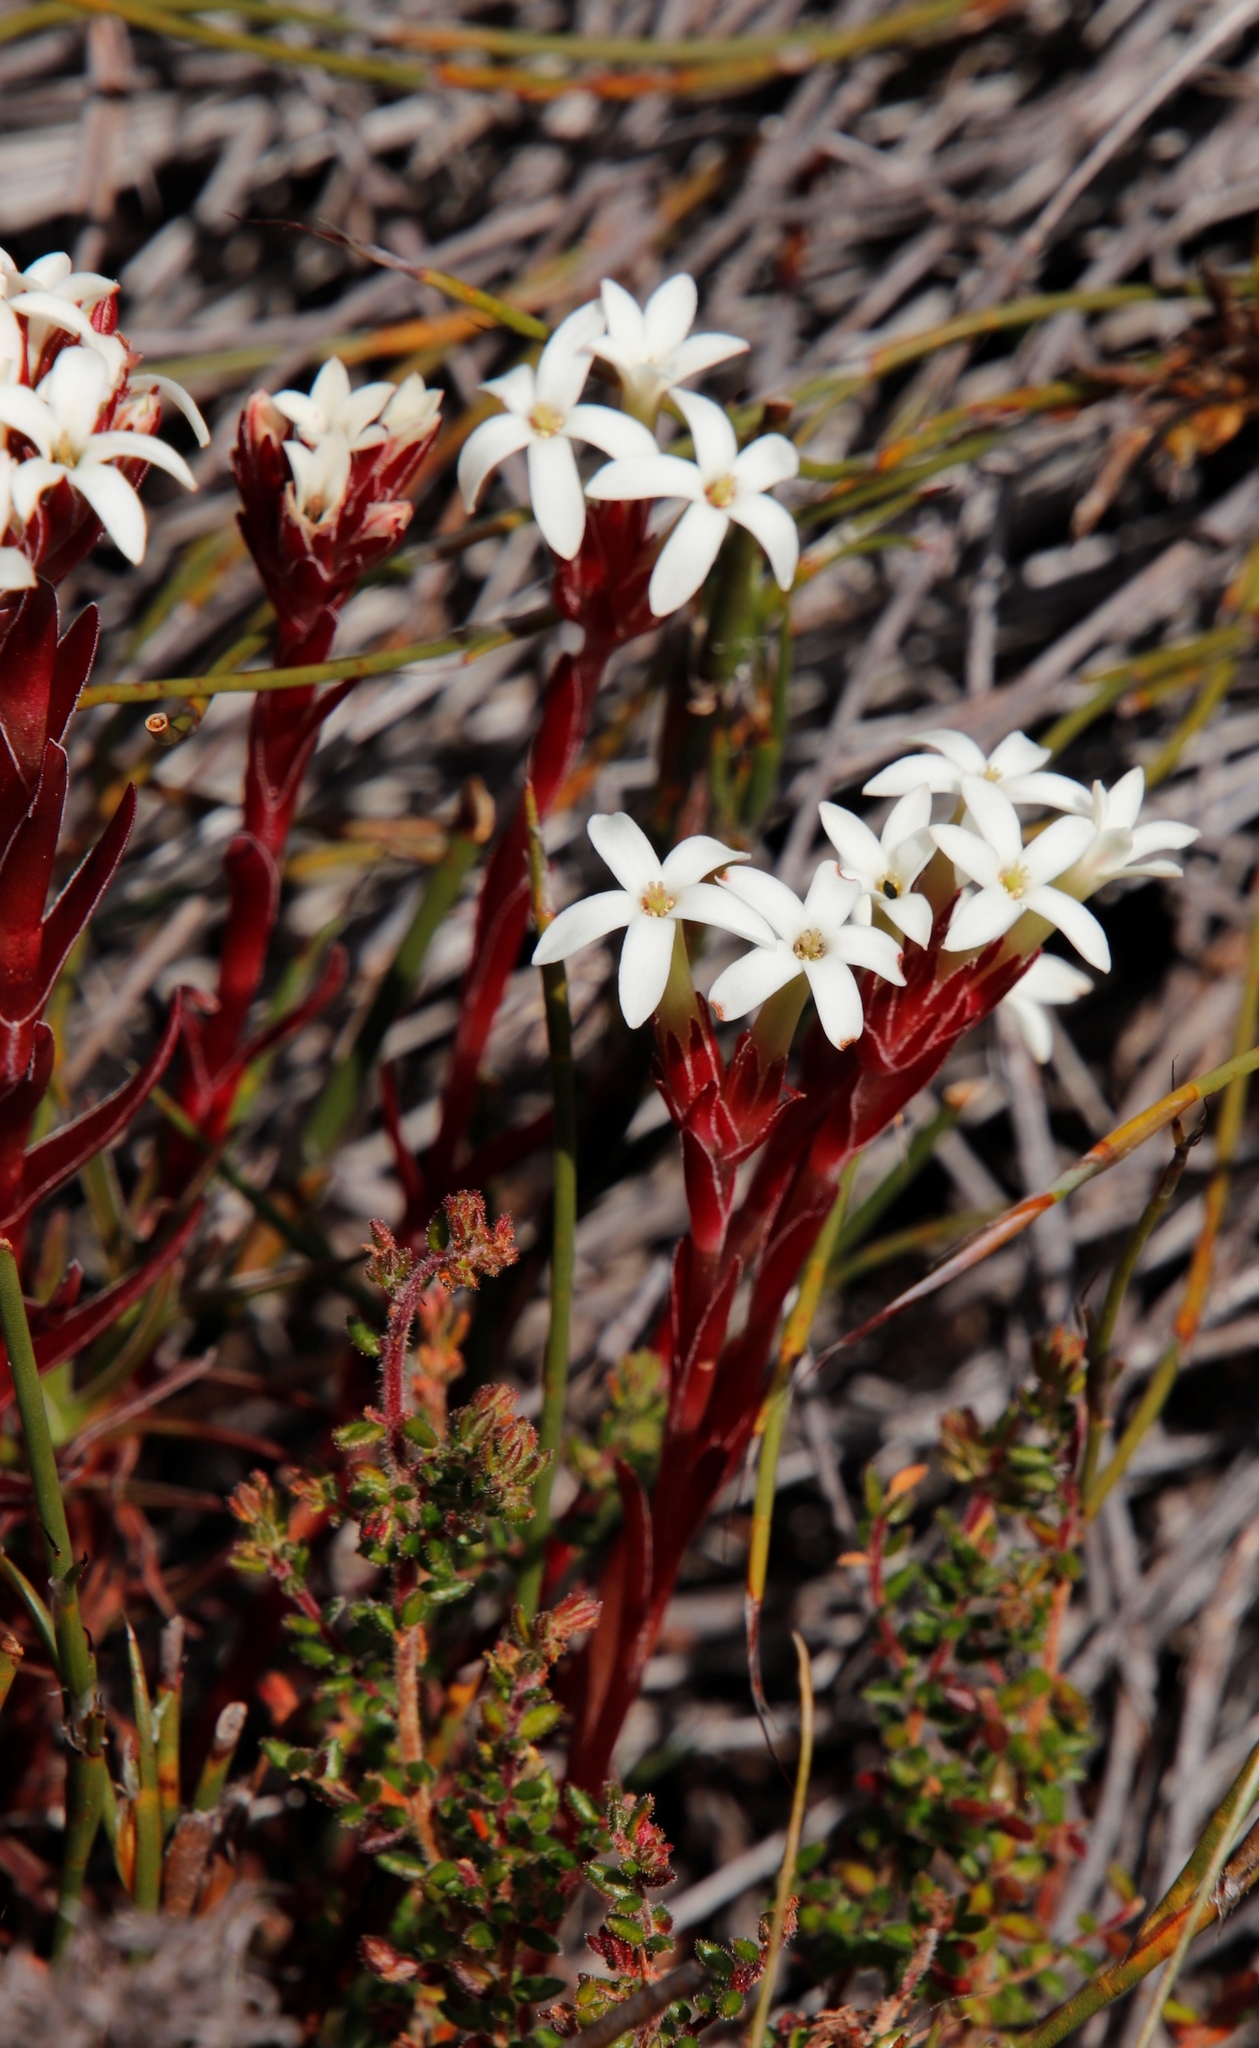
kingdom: Plantae
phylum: Tracheophyta
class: Magnoliopsida
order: Saxifragales
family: Crassulaceae
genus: Crassula
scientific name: Crassula fascicularis
